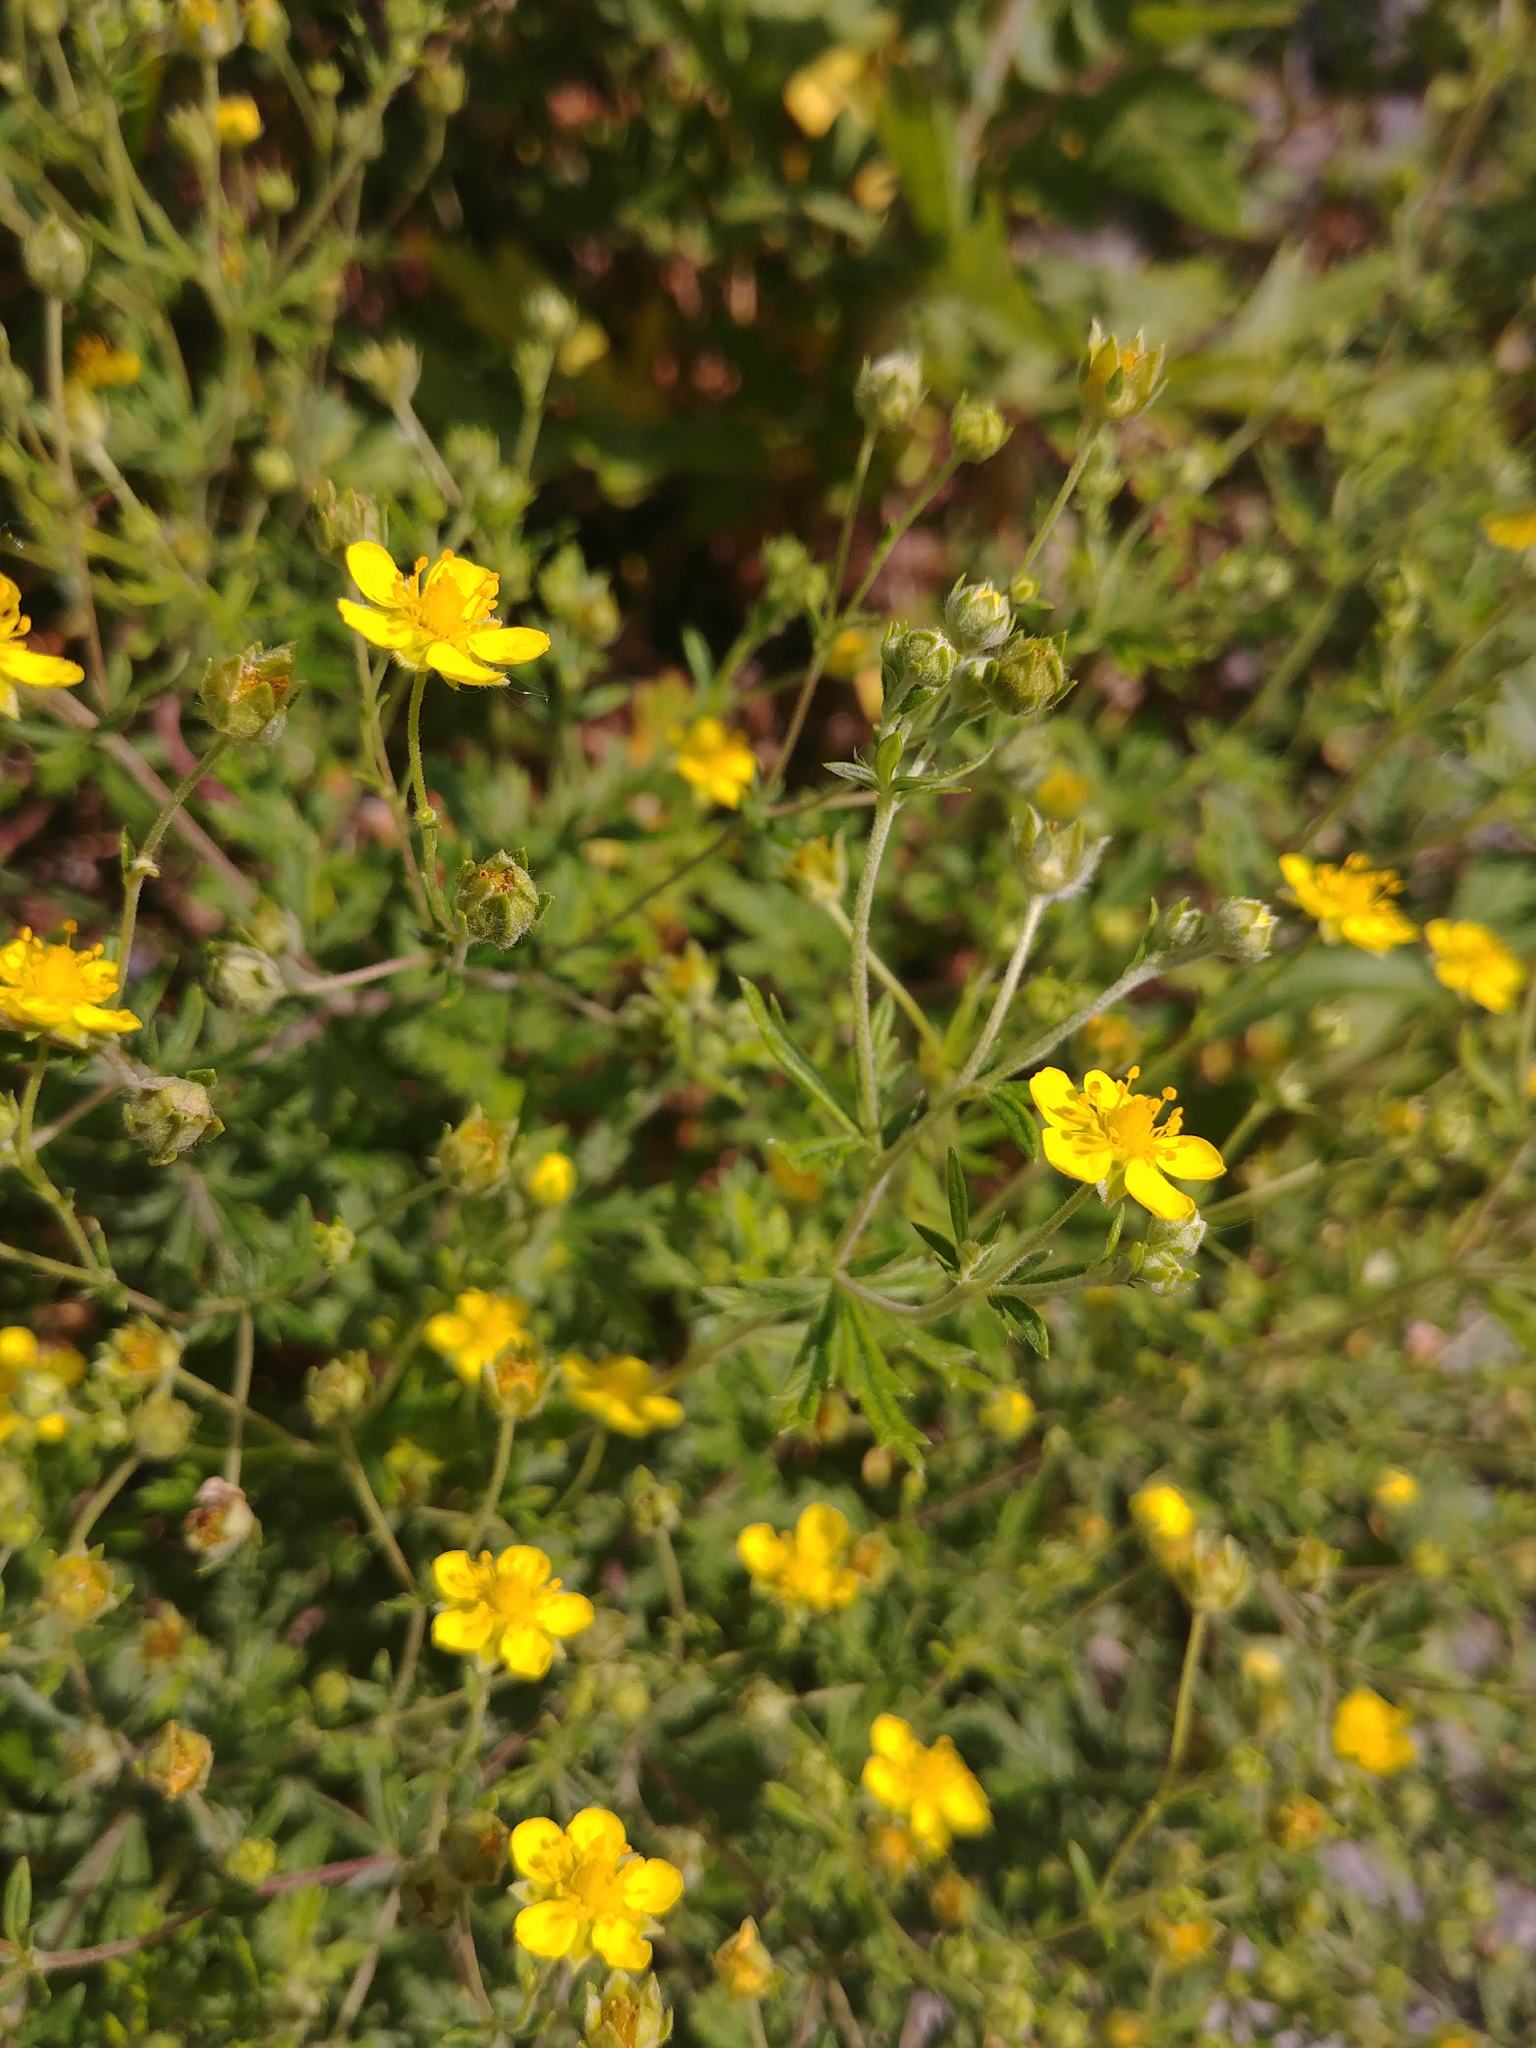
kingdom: Plantae
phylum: Tracheophyta
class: Magnoliopsida
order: Rosales
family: Rosaceae
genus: Potentilla
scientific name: Potentilla argentea
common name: Hoary cinquefoil
